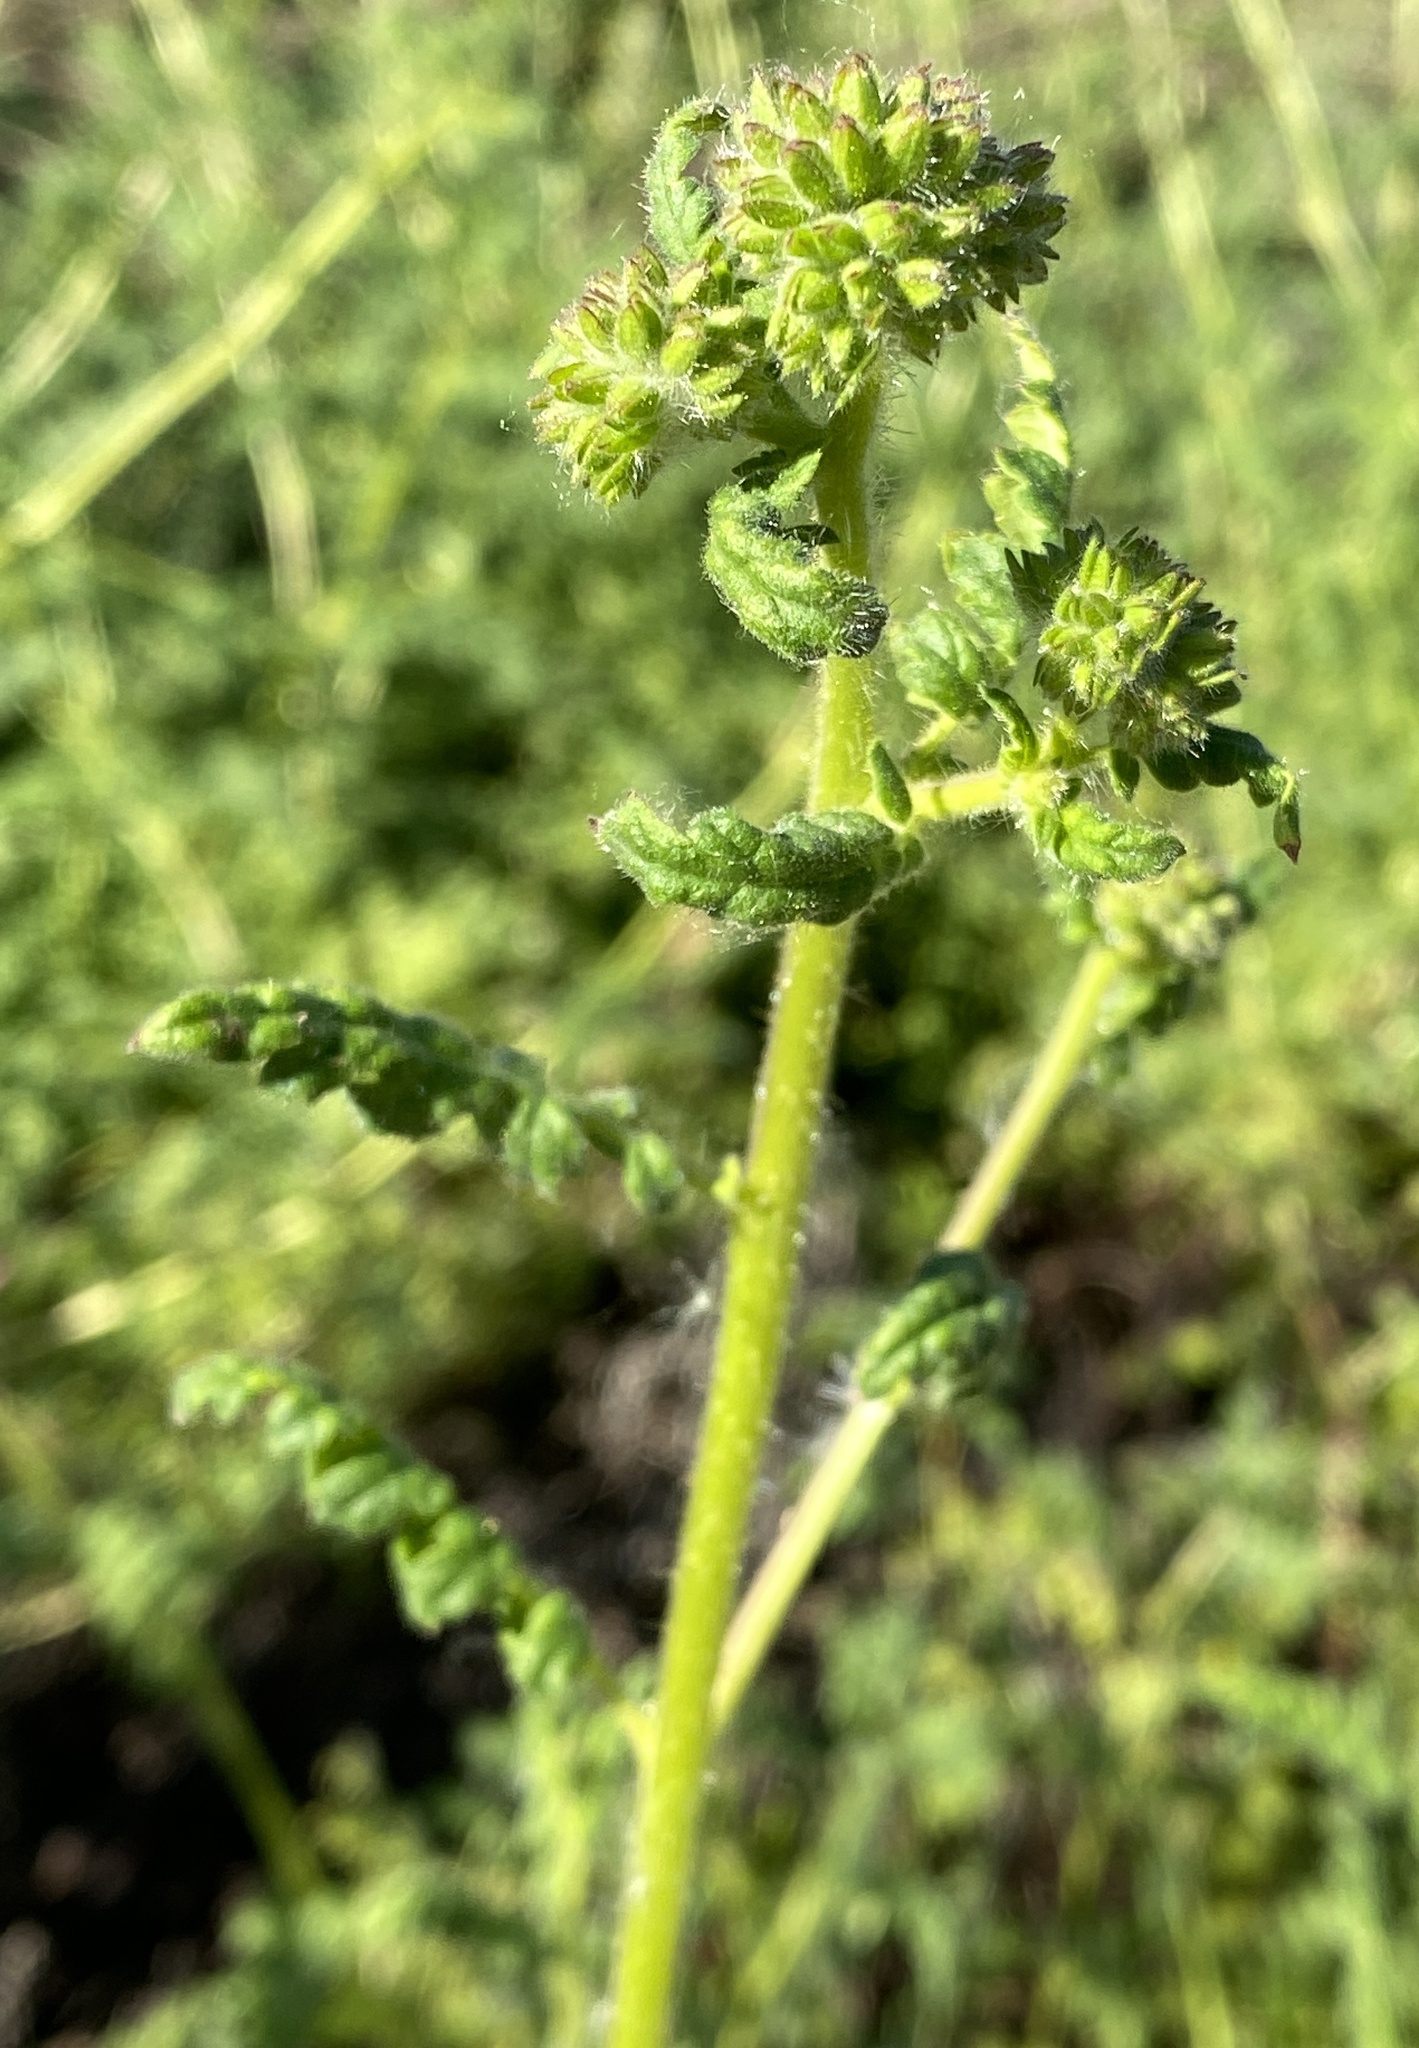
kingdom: Plantae
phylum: Tracheophyta
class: Magnoliopsida
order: Boraginales
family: Hydrophyllaceae
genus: Phacelia
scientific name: Phacelia
